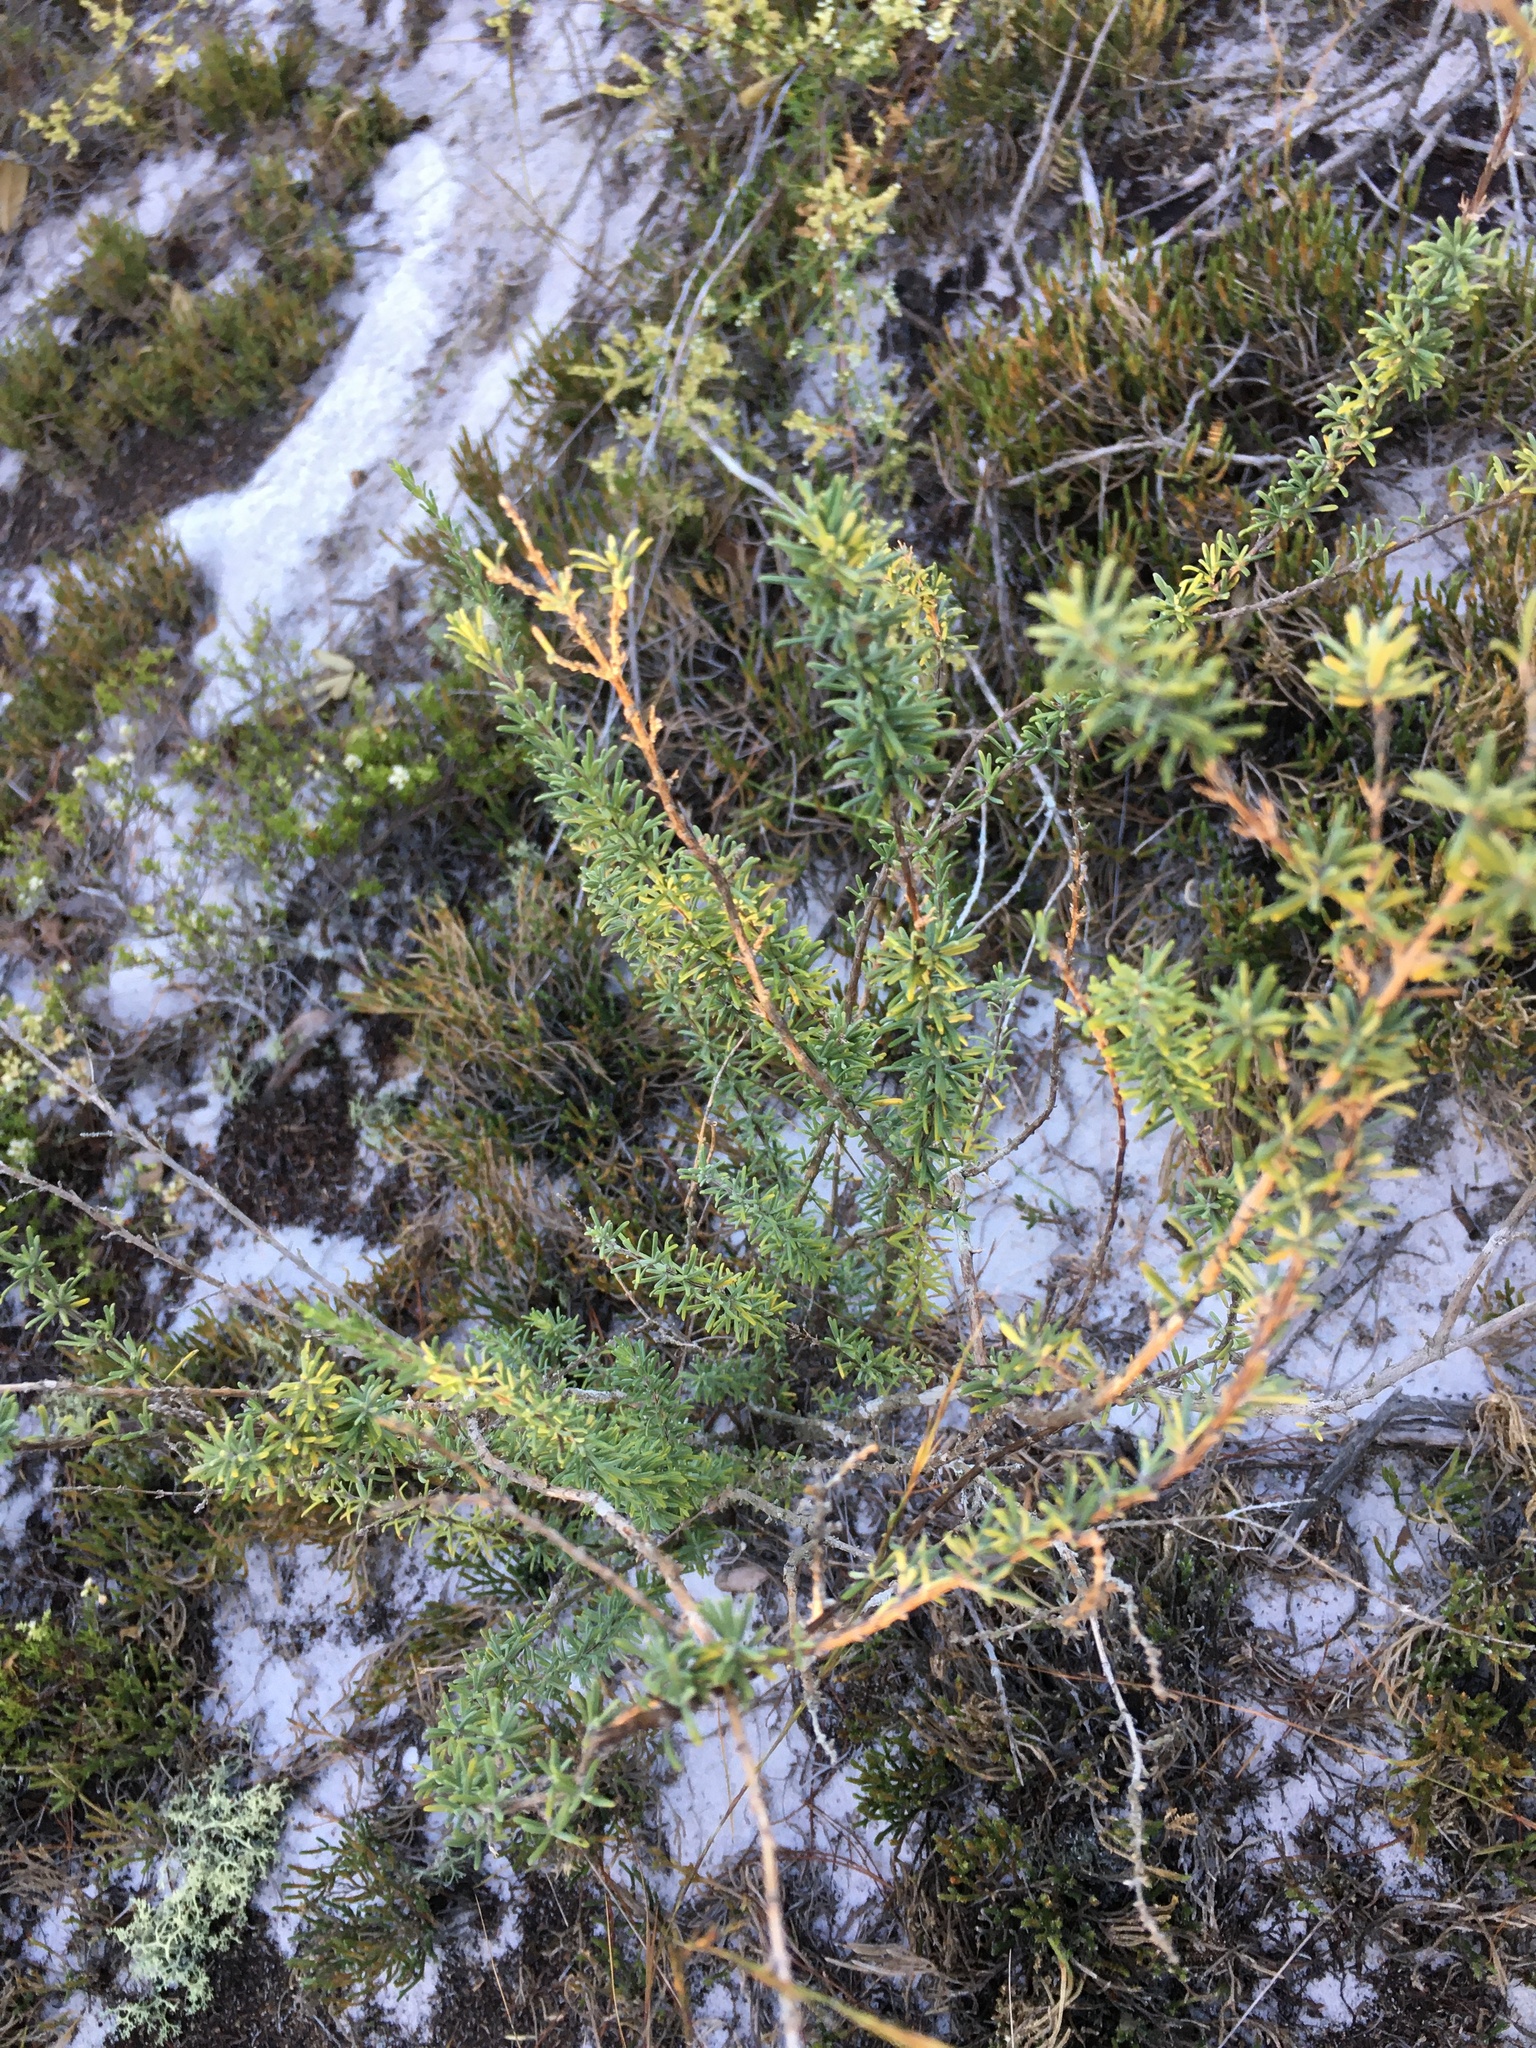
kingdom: Plantae
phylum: Tracheophyta
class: Magnoliopsida
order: Lamiales
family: Lamiaceae
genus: Conradina
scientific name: Conradina canescens
